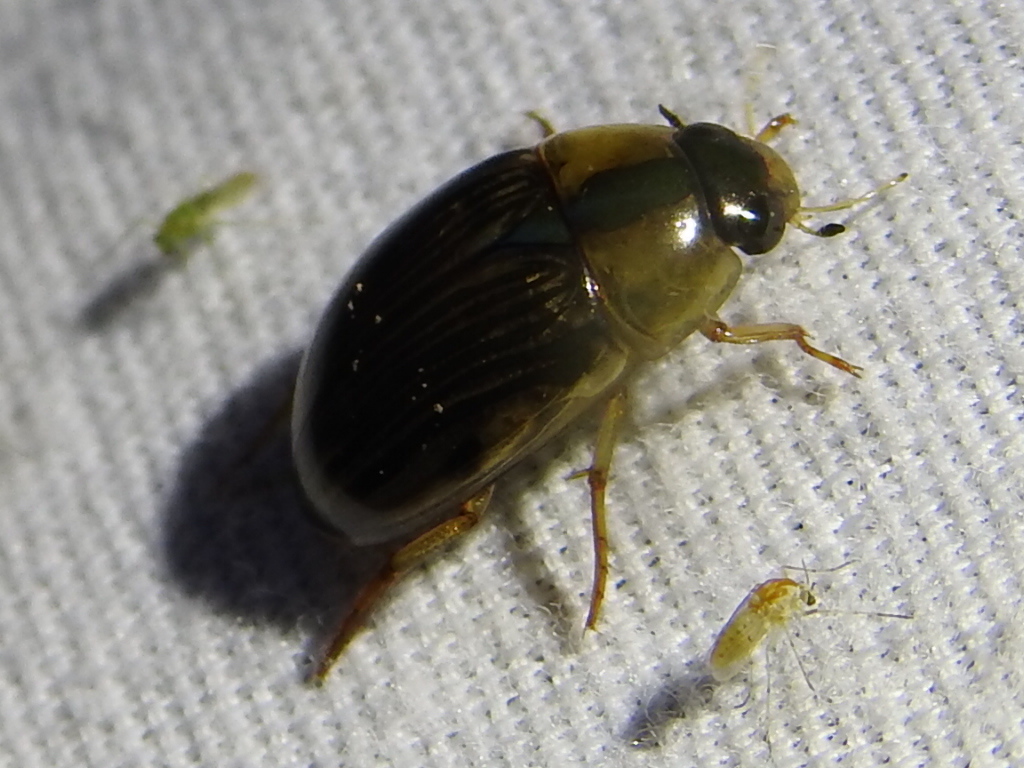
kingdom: Animalia
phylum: Arthropoda
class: Insecta
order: Coleoptera
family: Hydrophilidae
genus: Tropisternus
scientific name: Tropisternus collaris
